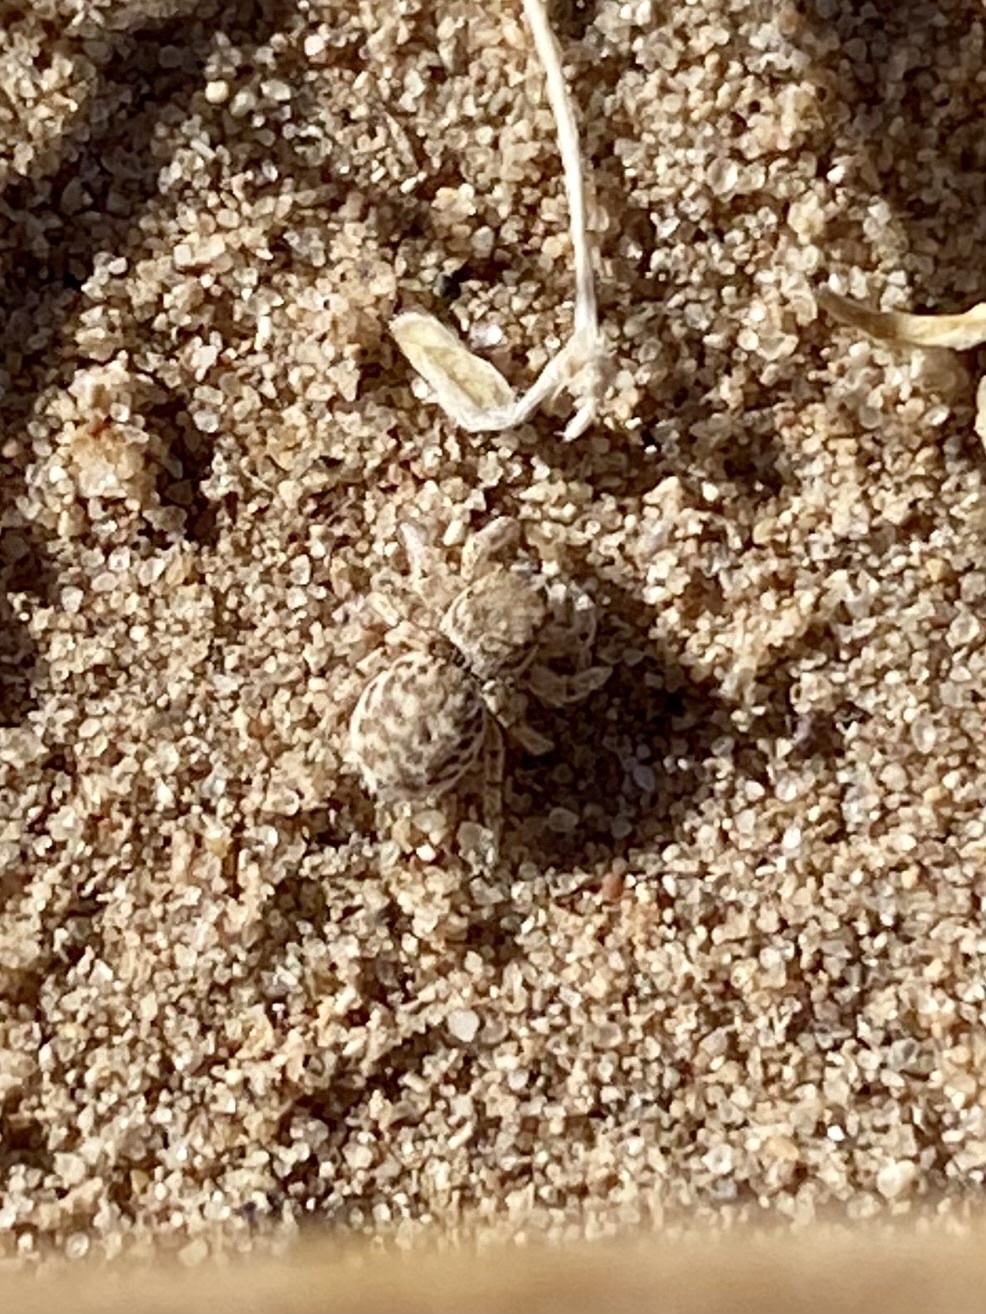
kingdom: Animalia
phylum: Arthropoda
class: Arachnida
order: Araneae
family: Salticidae
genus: Habronattus
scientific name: Habronattus ustulatus
